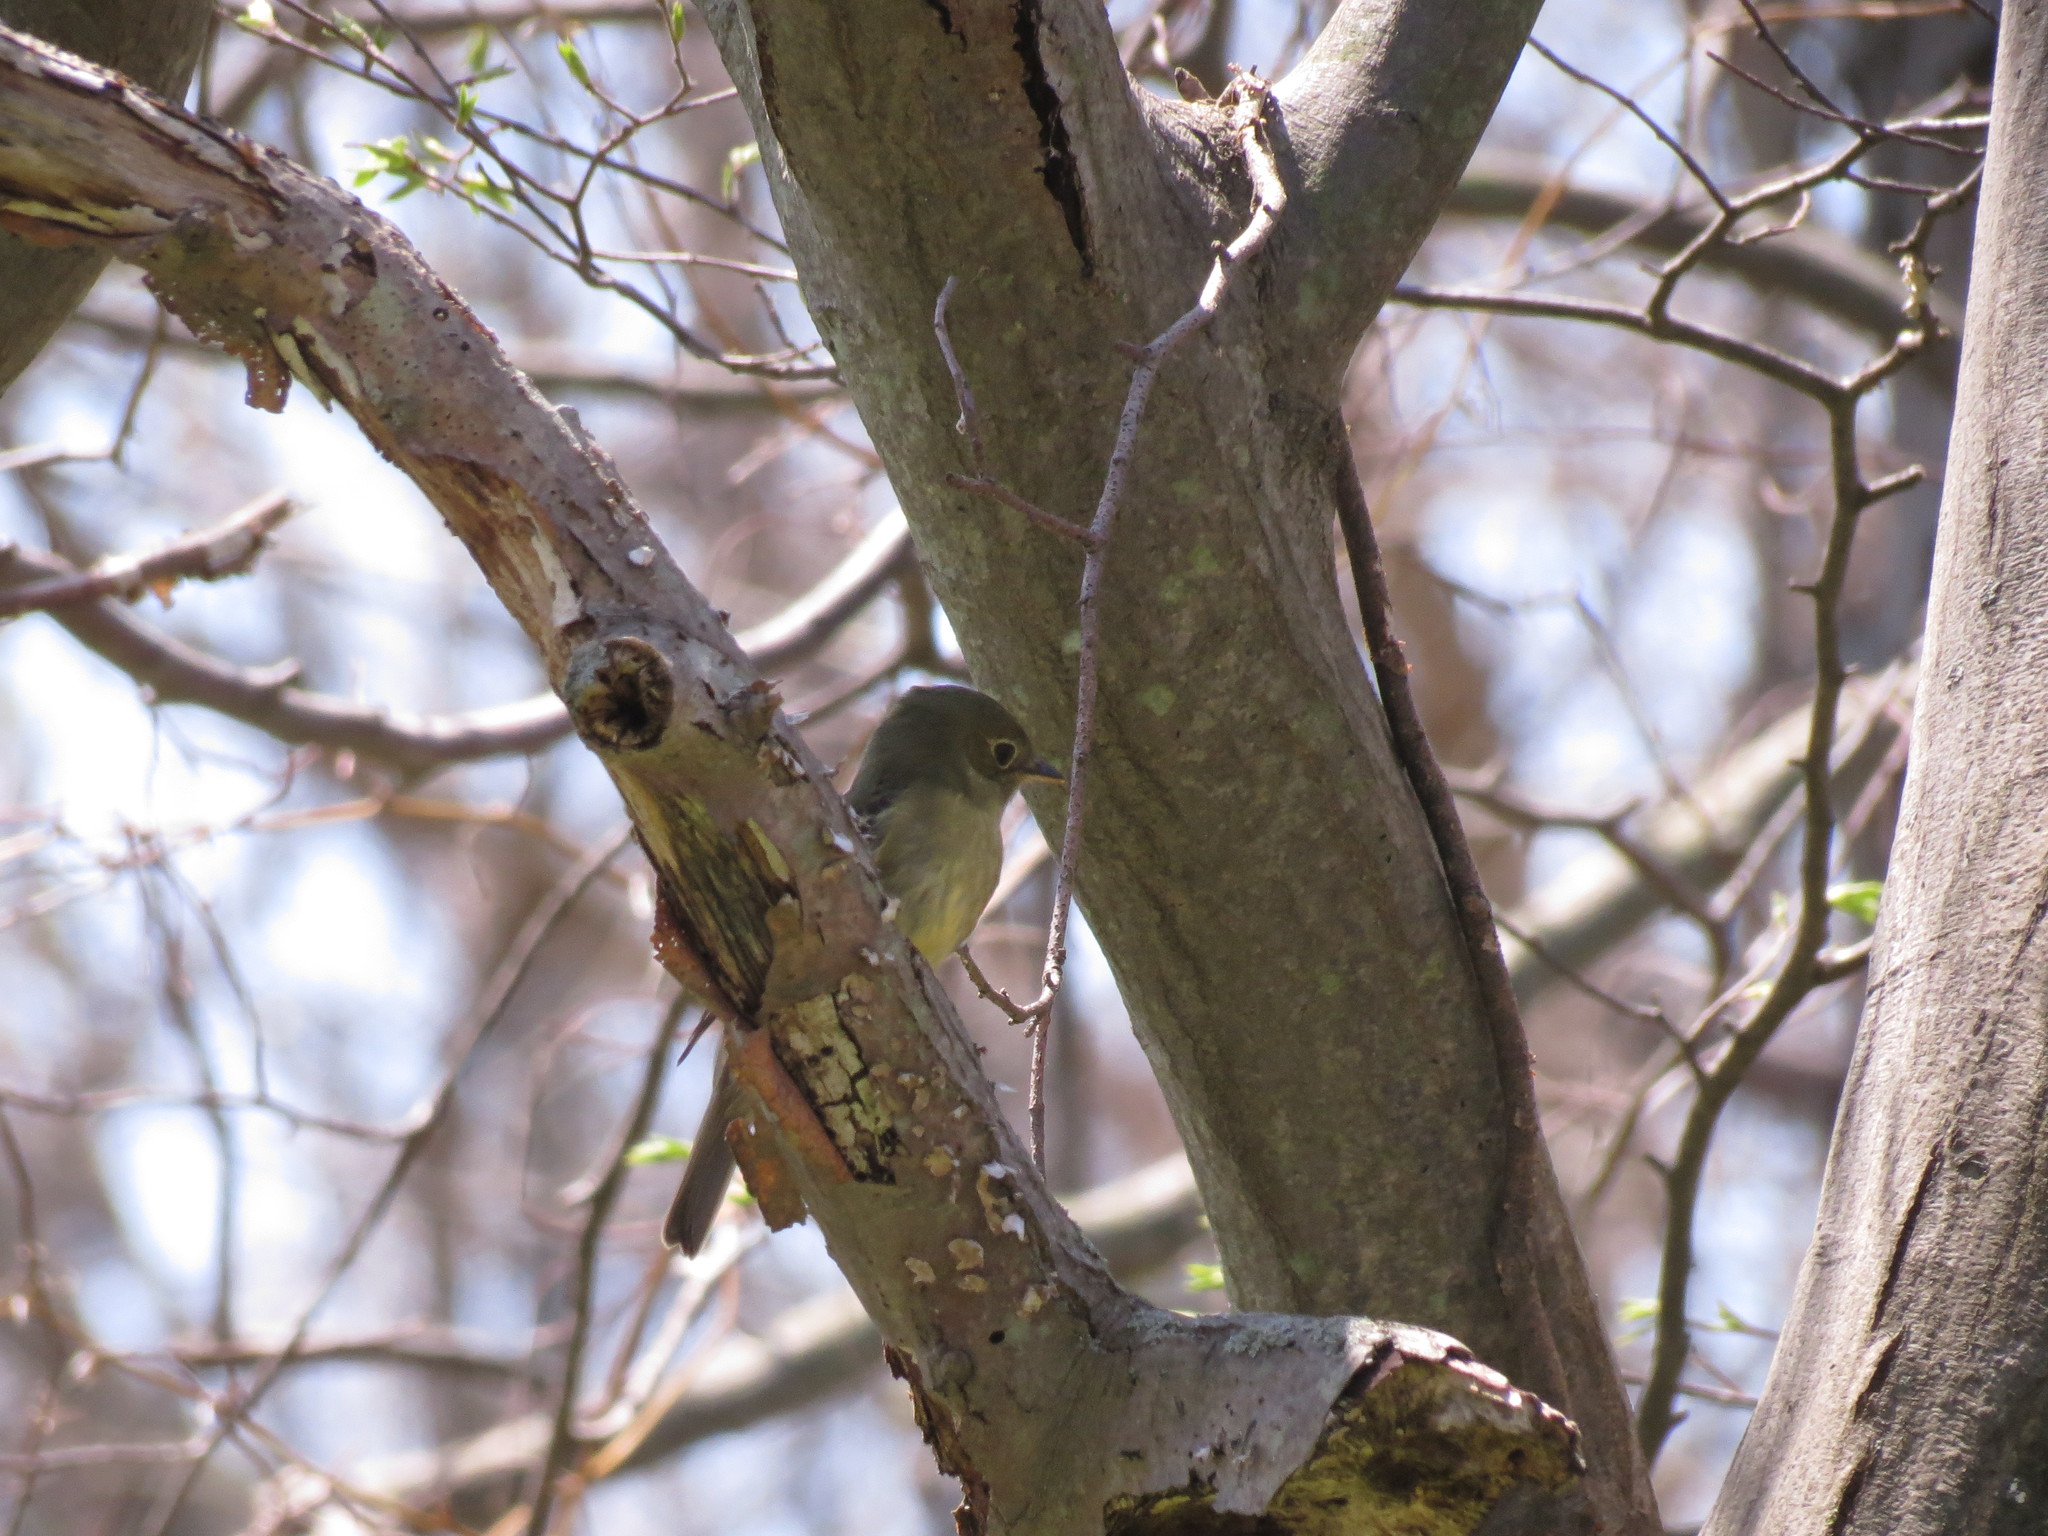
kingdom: Animalia
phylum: Chordata
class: Aves
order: Passeriformes
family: Tyrannidae
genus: Empidonax
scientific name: Empidonax flaviventris
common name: Yellow-bellied flycatcher
